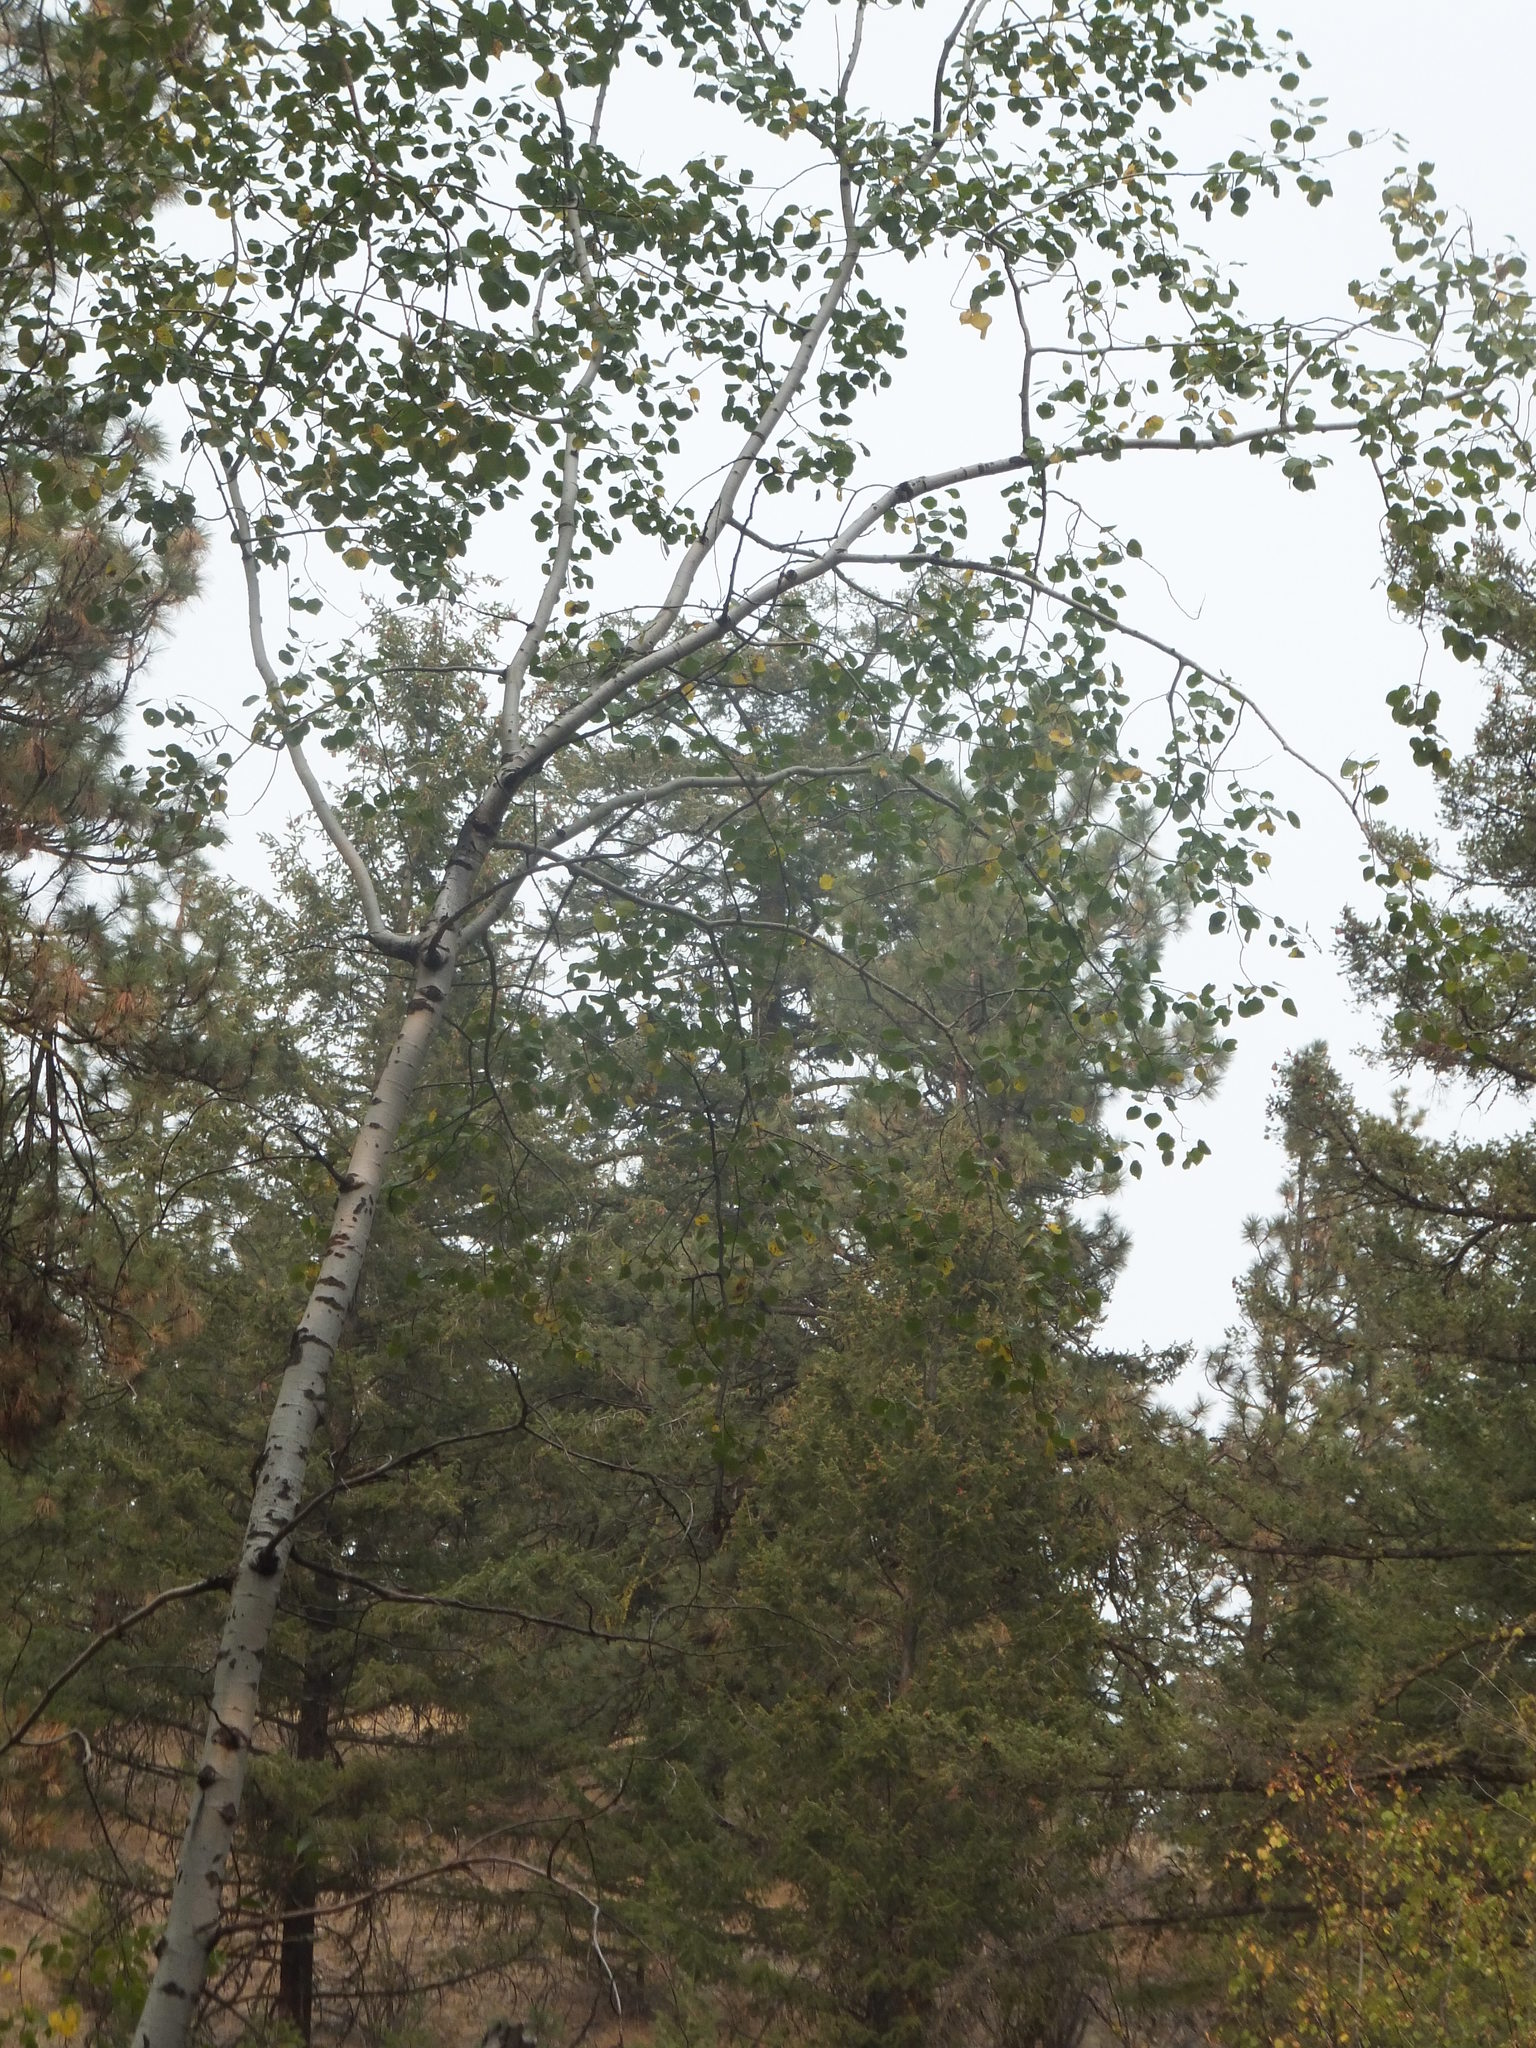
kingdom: Plantae
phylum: Tracheophyta
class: Magnoliopsida
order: Malpighiales
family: Salicaceae
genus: Populus
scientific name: Populus tremuloides
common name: Quaking aspen
